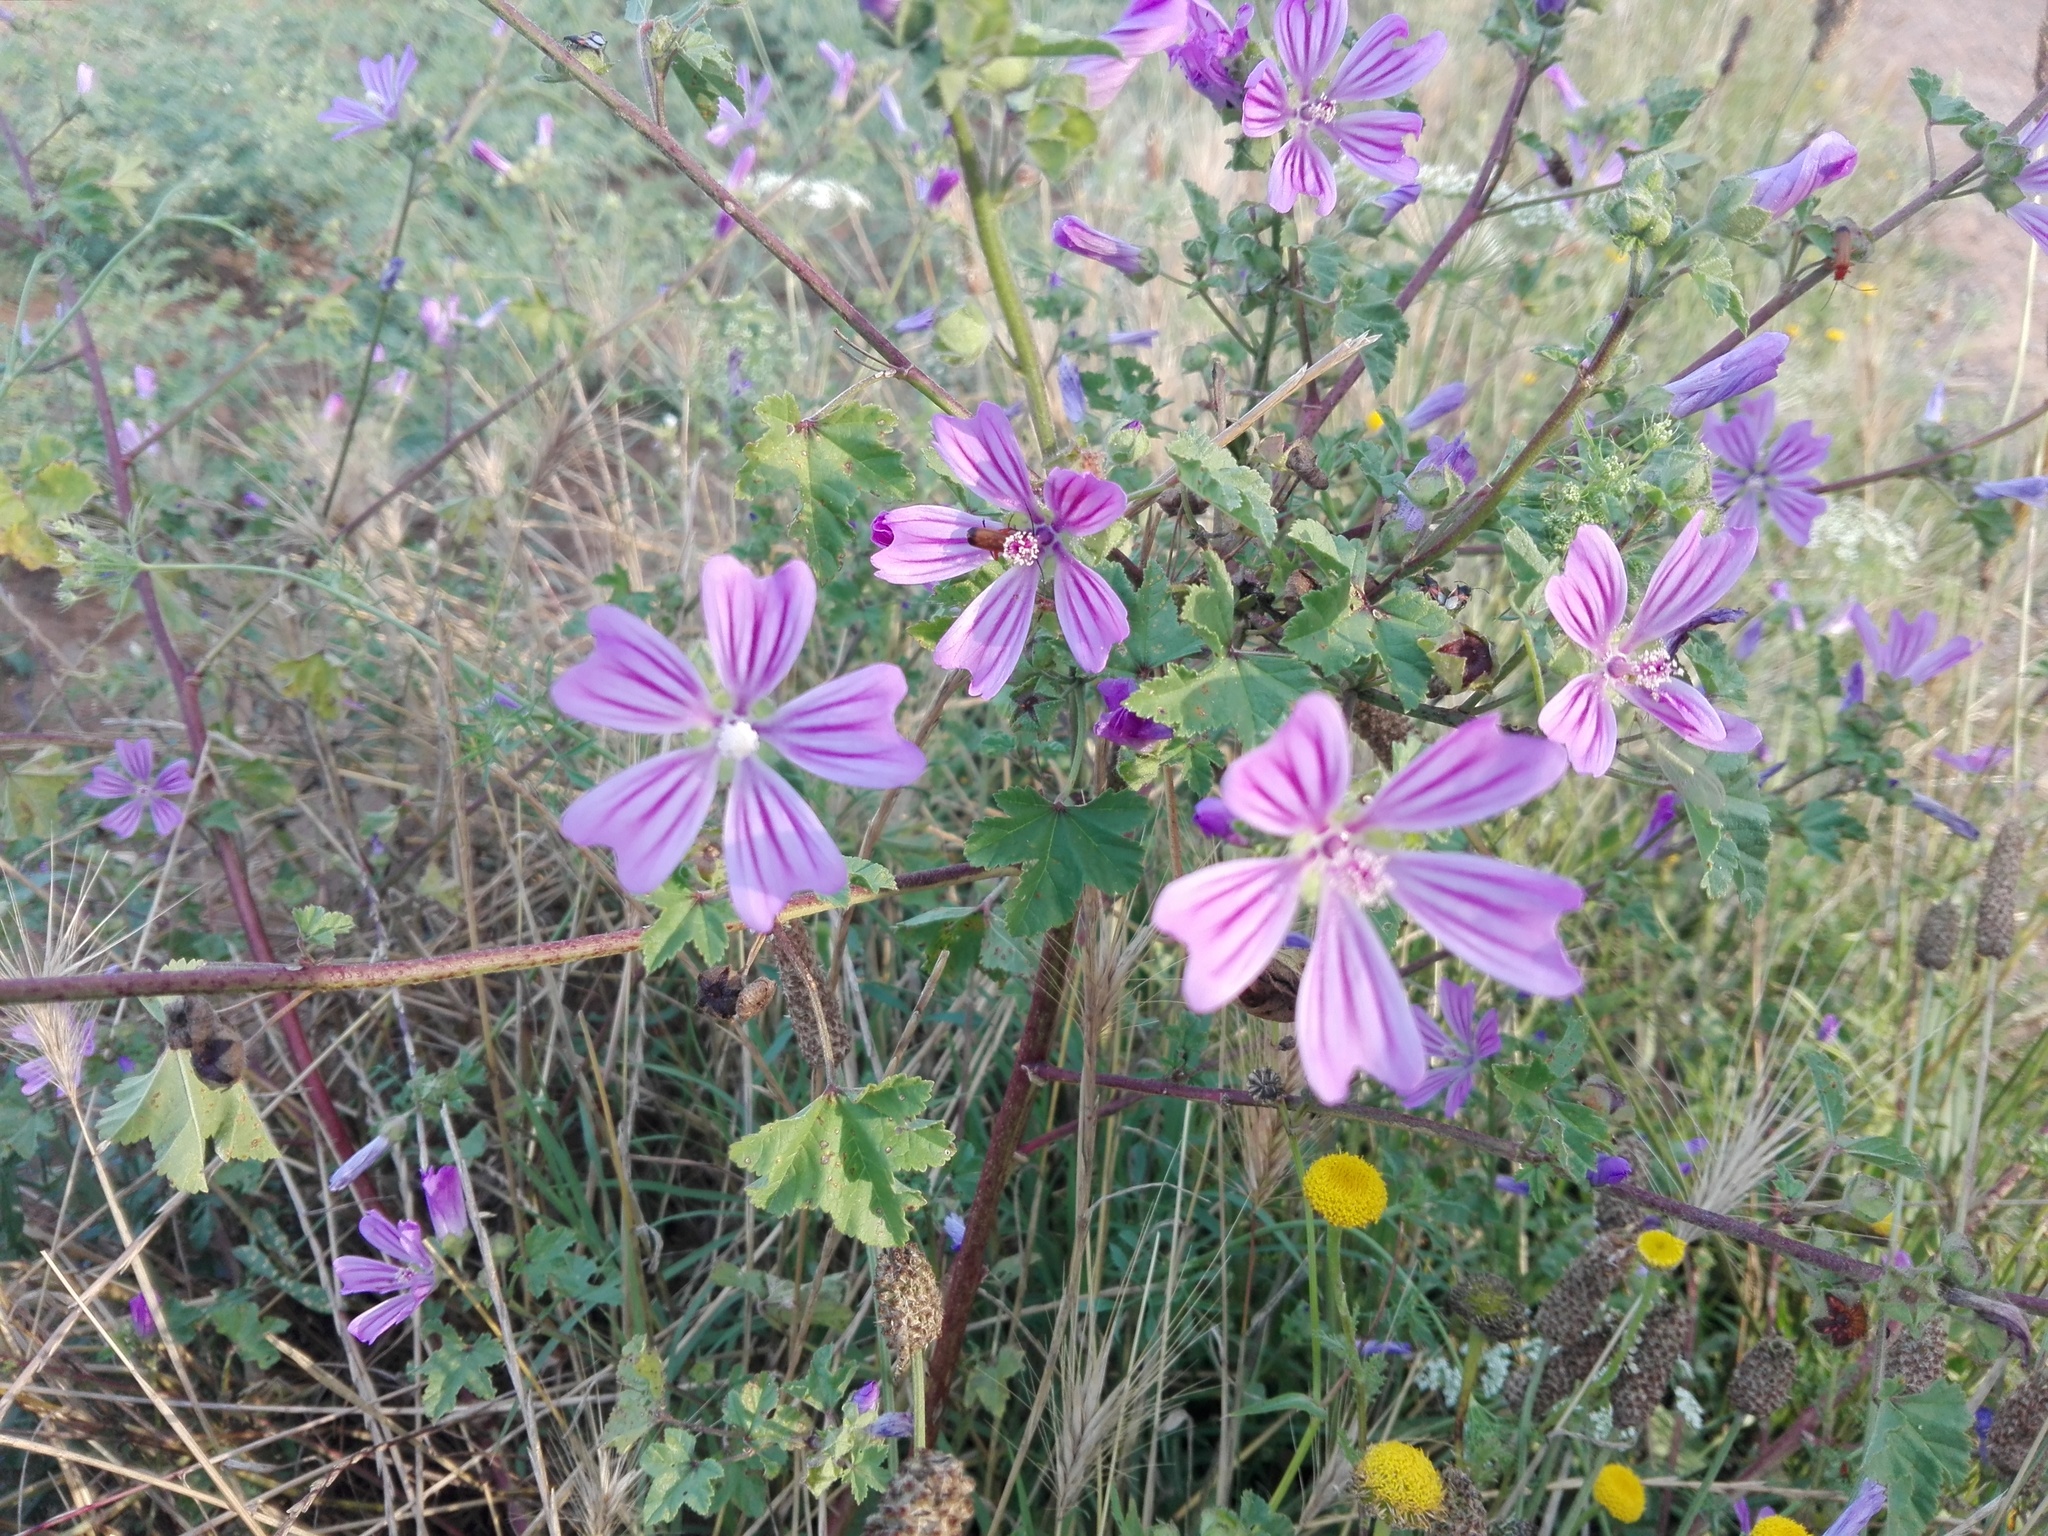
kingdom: Plantae
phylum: Tracheophyta
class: Magnoliopsida
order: Malvales
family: Malvaceae
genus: Malva
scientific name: Malva sylvestris
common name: Common mallow
